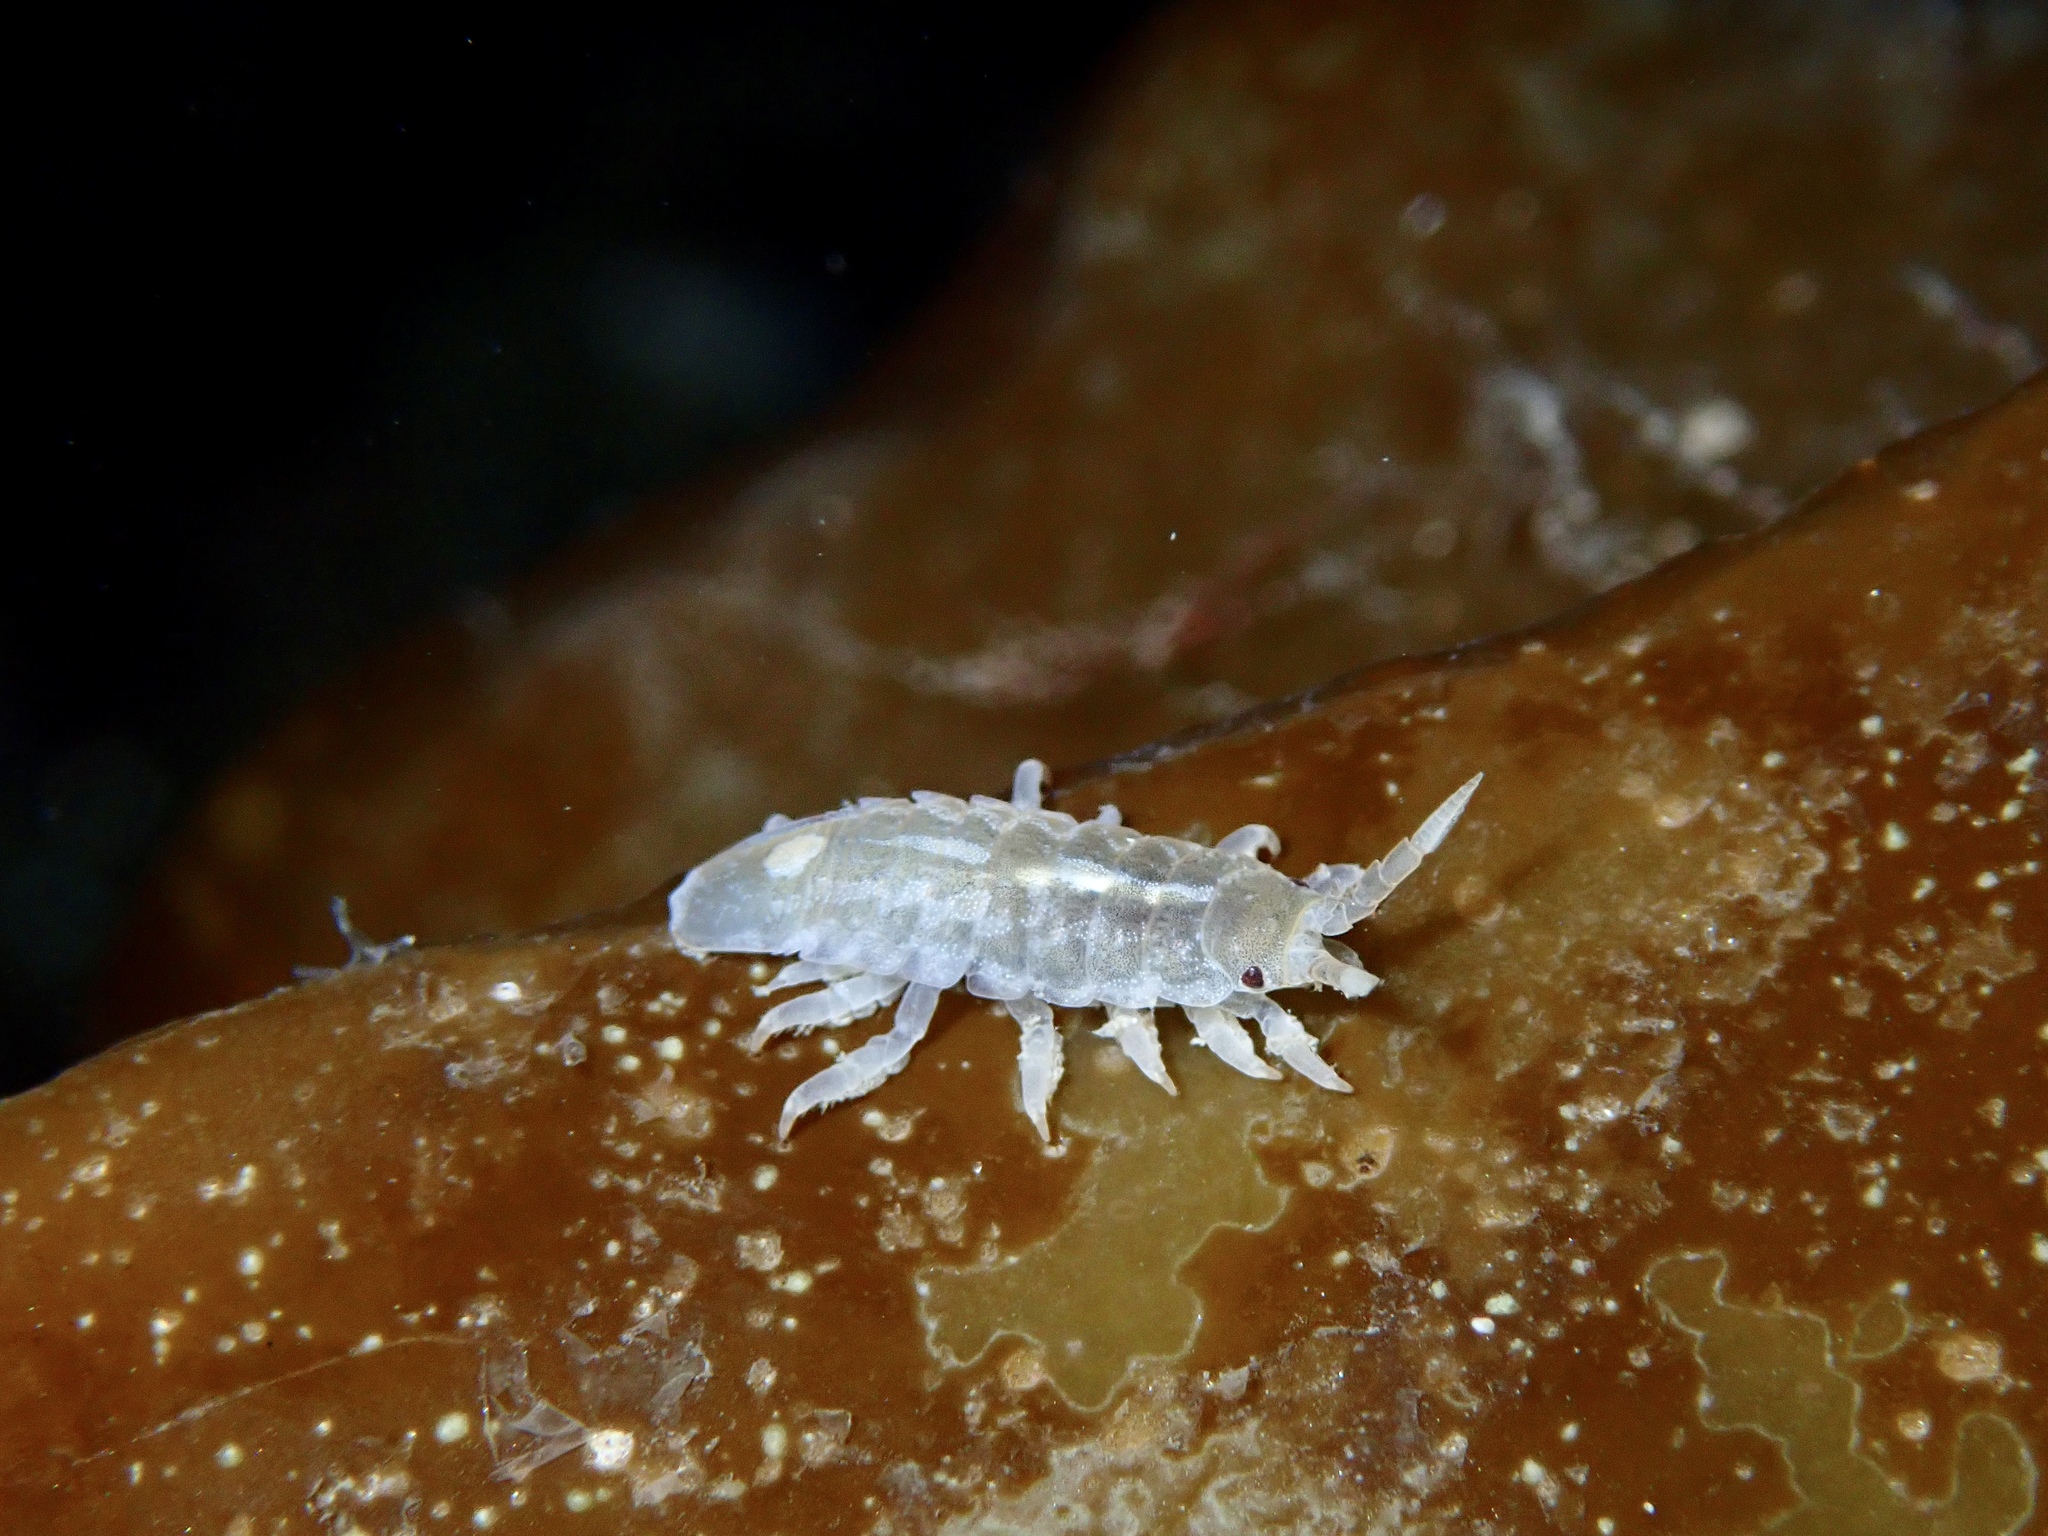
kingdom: Animalia
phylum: Arthropoda
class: Malacostraca
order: Isopoda
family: Idoteidae
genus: Idotea
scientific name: Idotea pelagica
